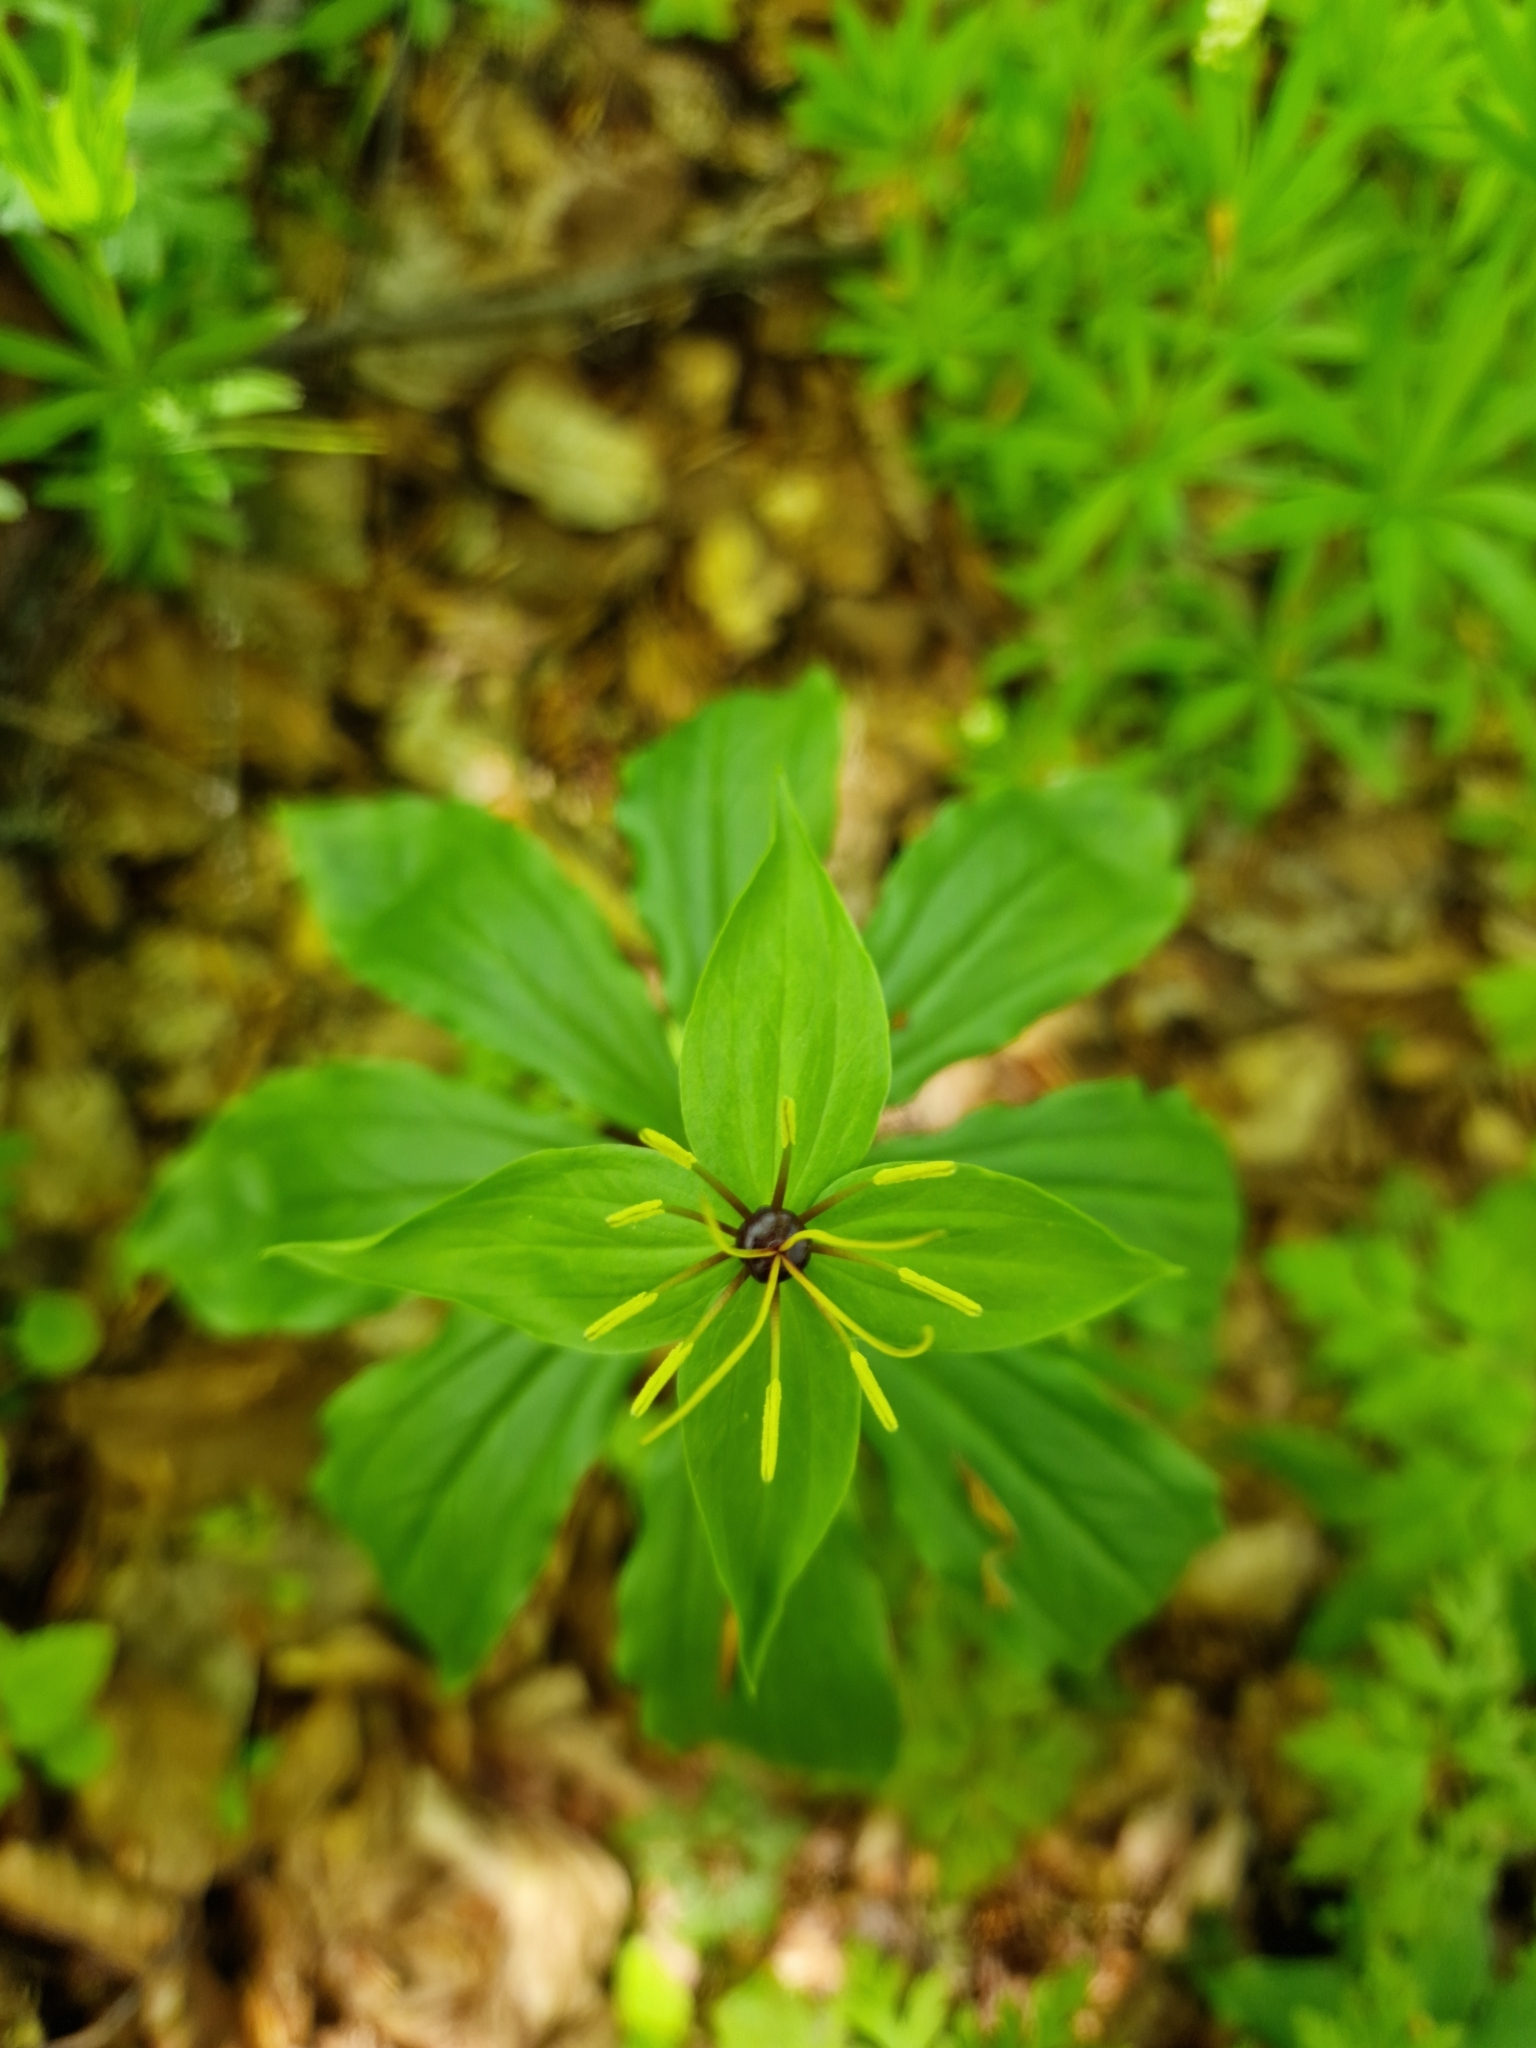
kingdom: Plantae
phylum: Tracheophyta
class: Liliopsida
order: Liliales
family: Melanthiaceae
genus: Paris
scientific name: Paris incompleta
